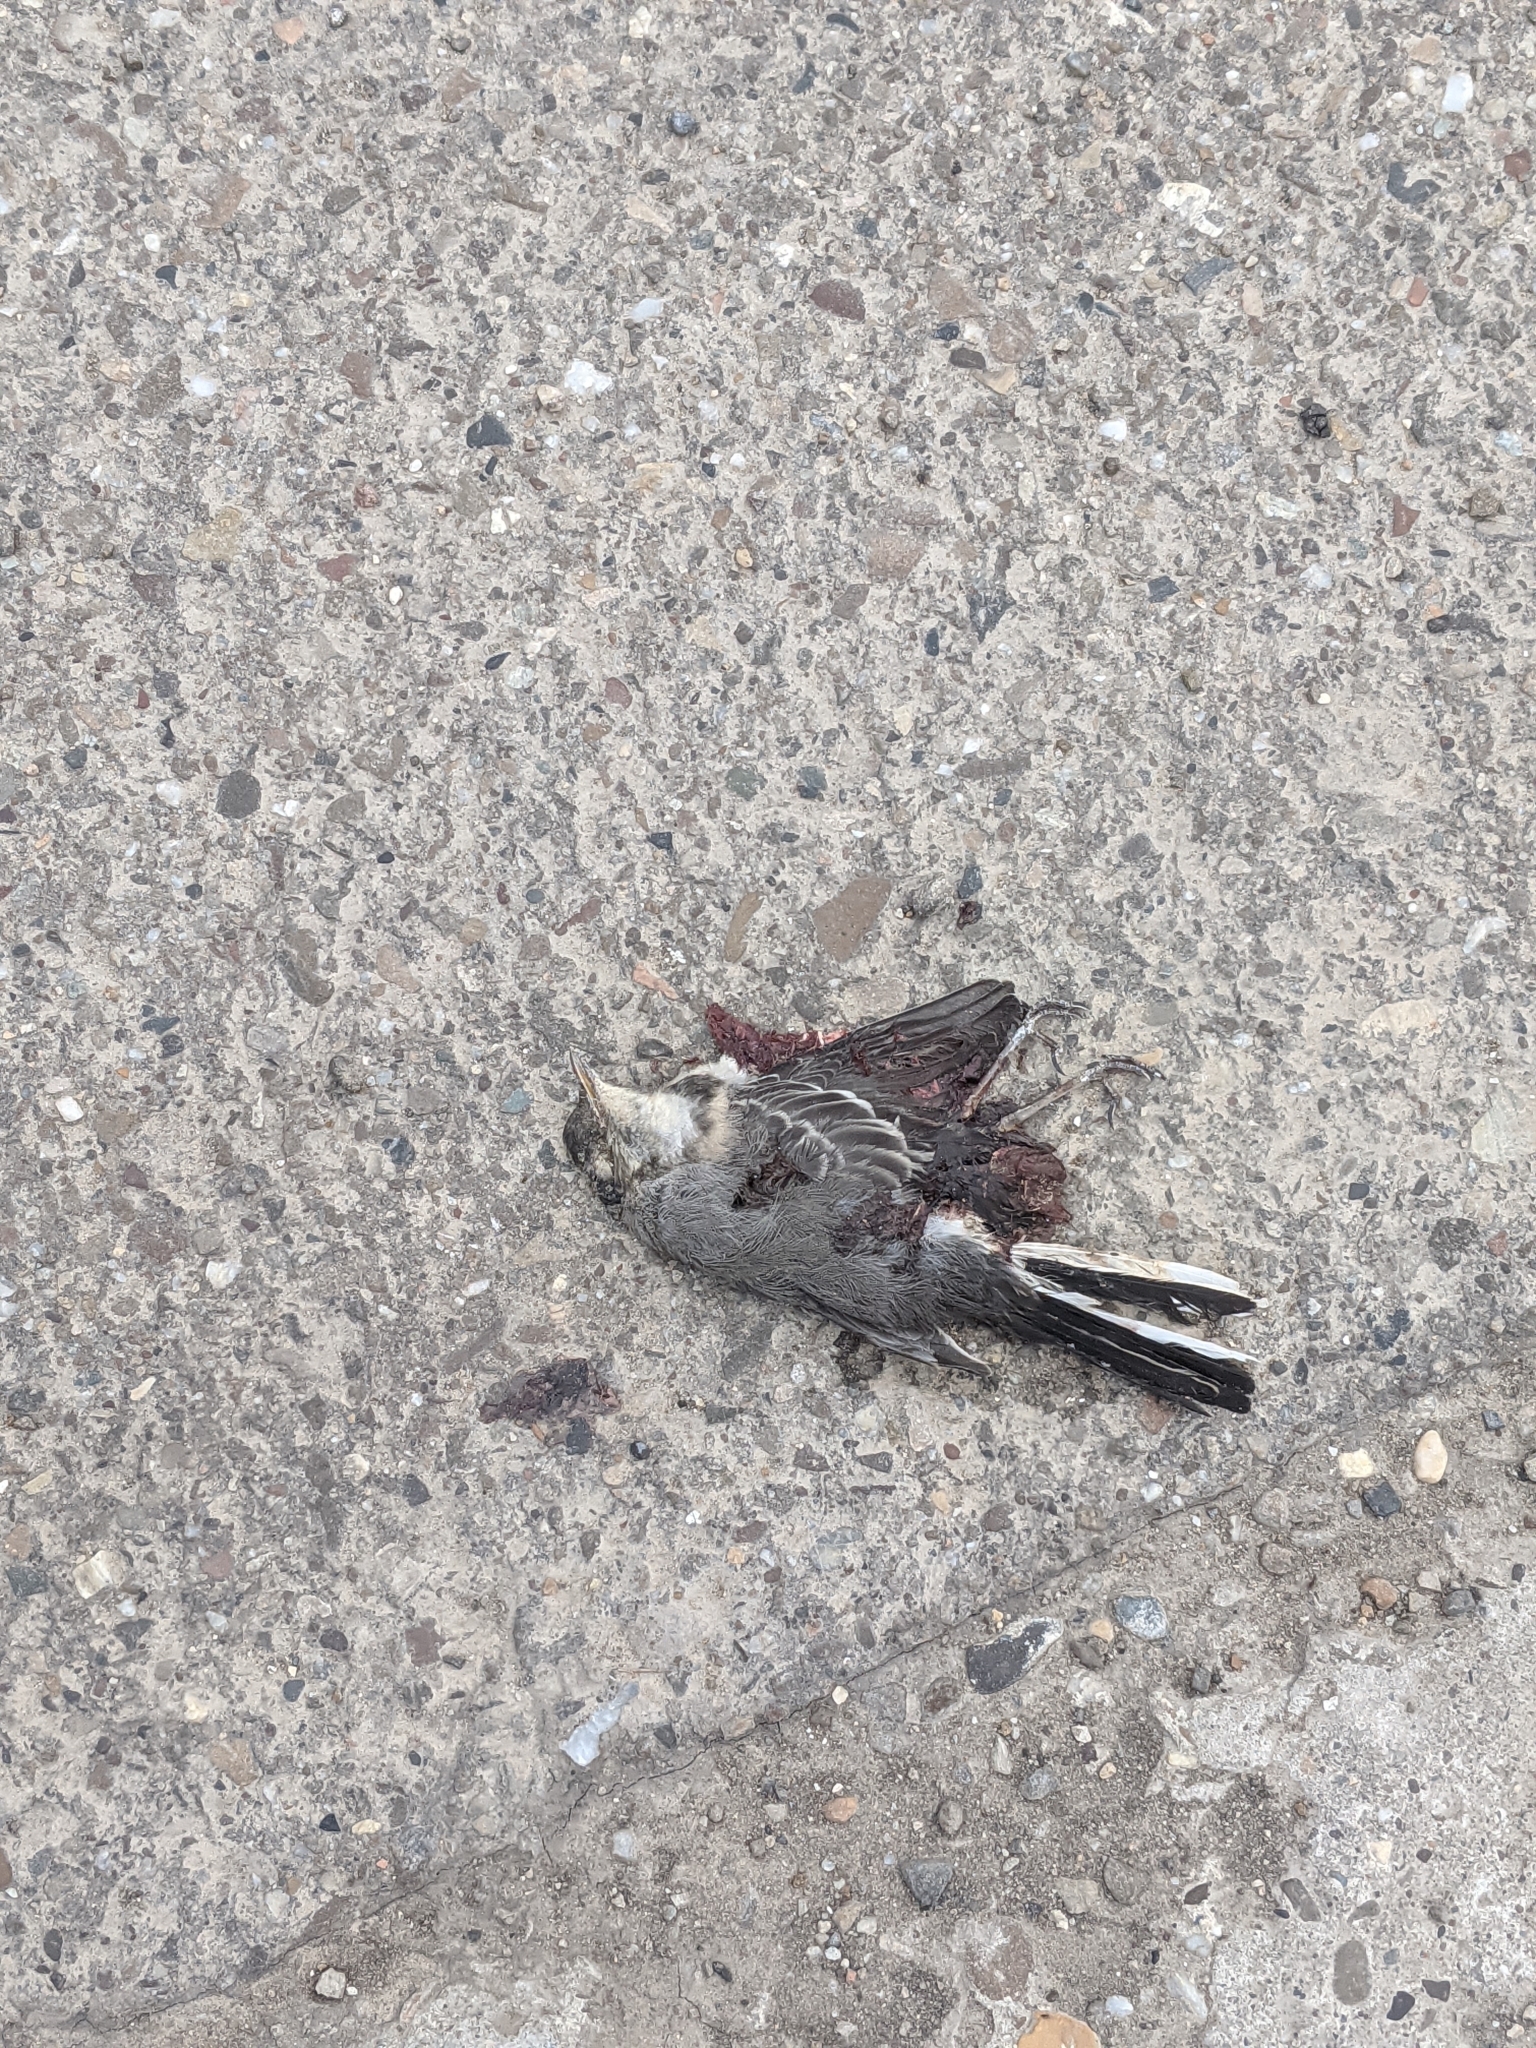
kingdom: Animalia
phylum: Chordata
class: Aves
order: Passeriformes
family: Motacillidae
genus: Motacilla
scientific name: Motacilla alba
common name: White wagtail
